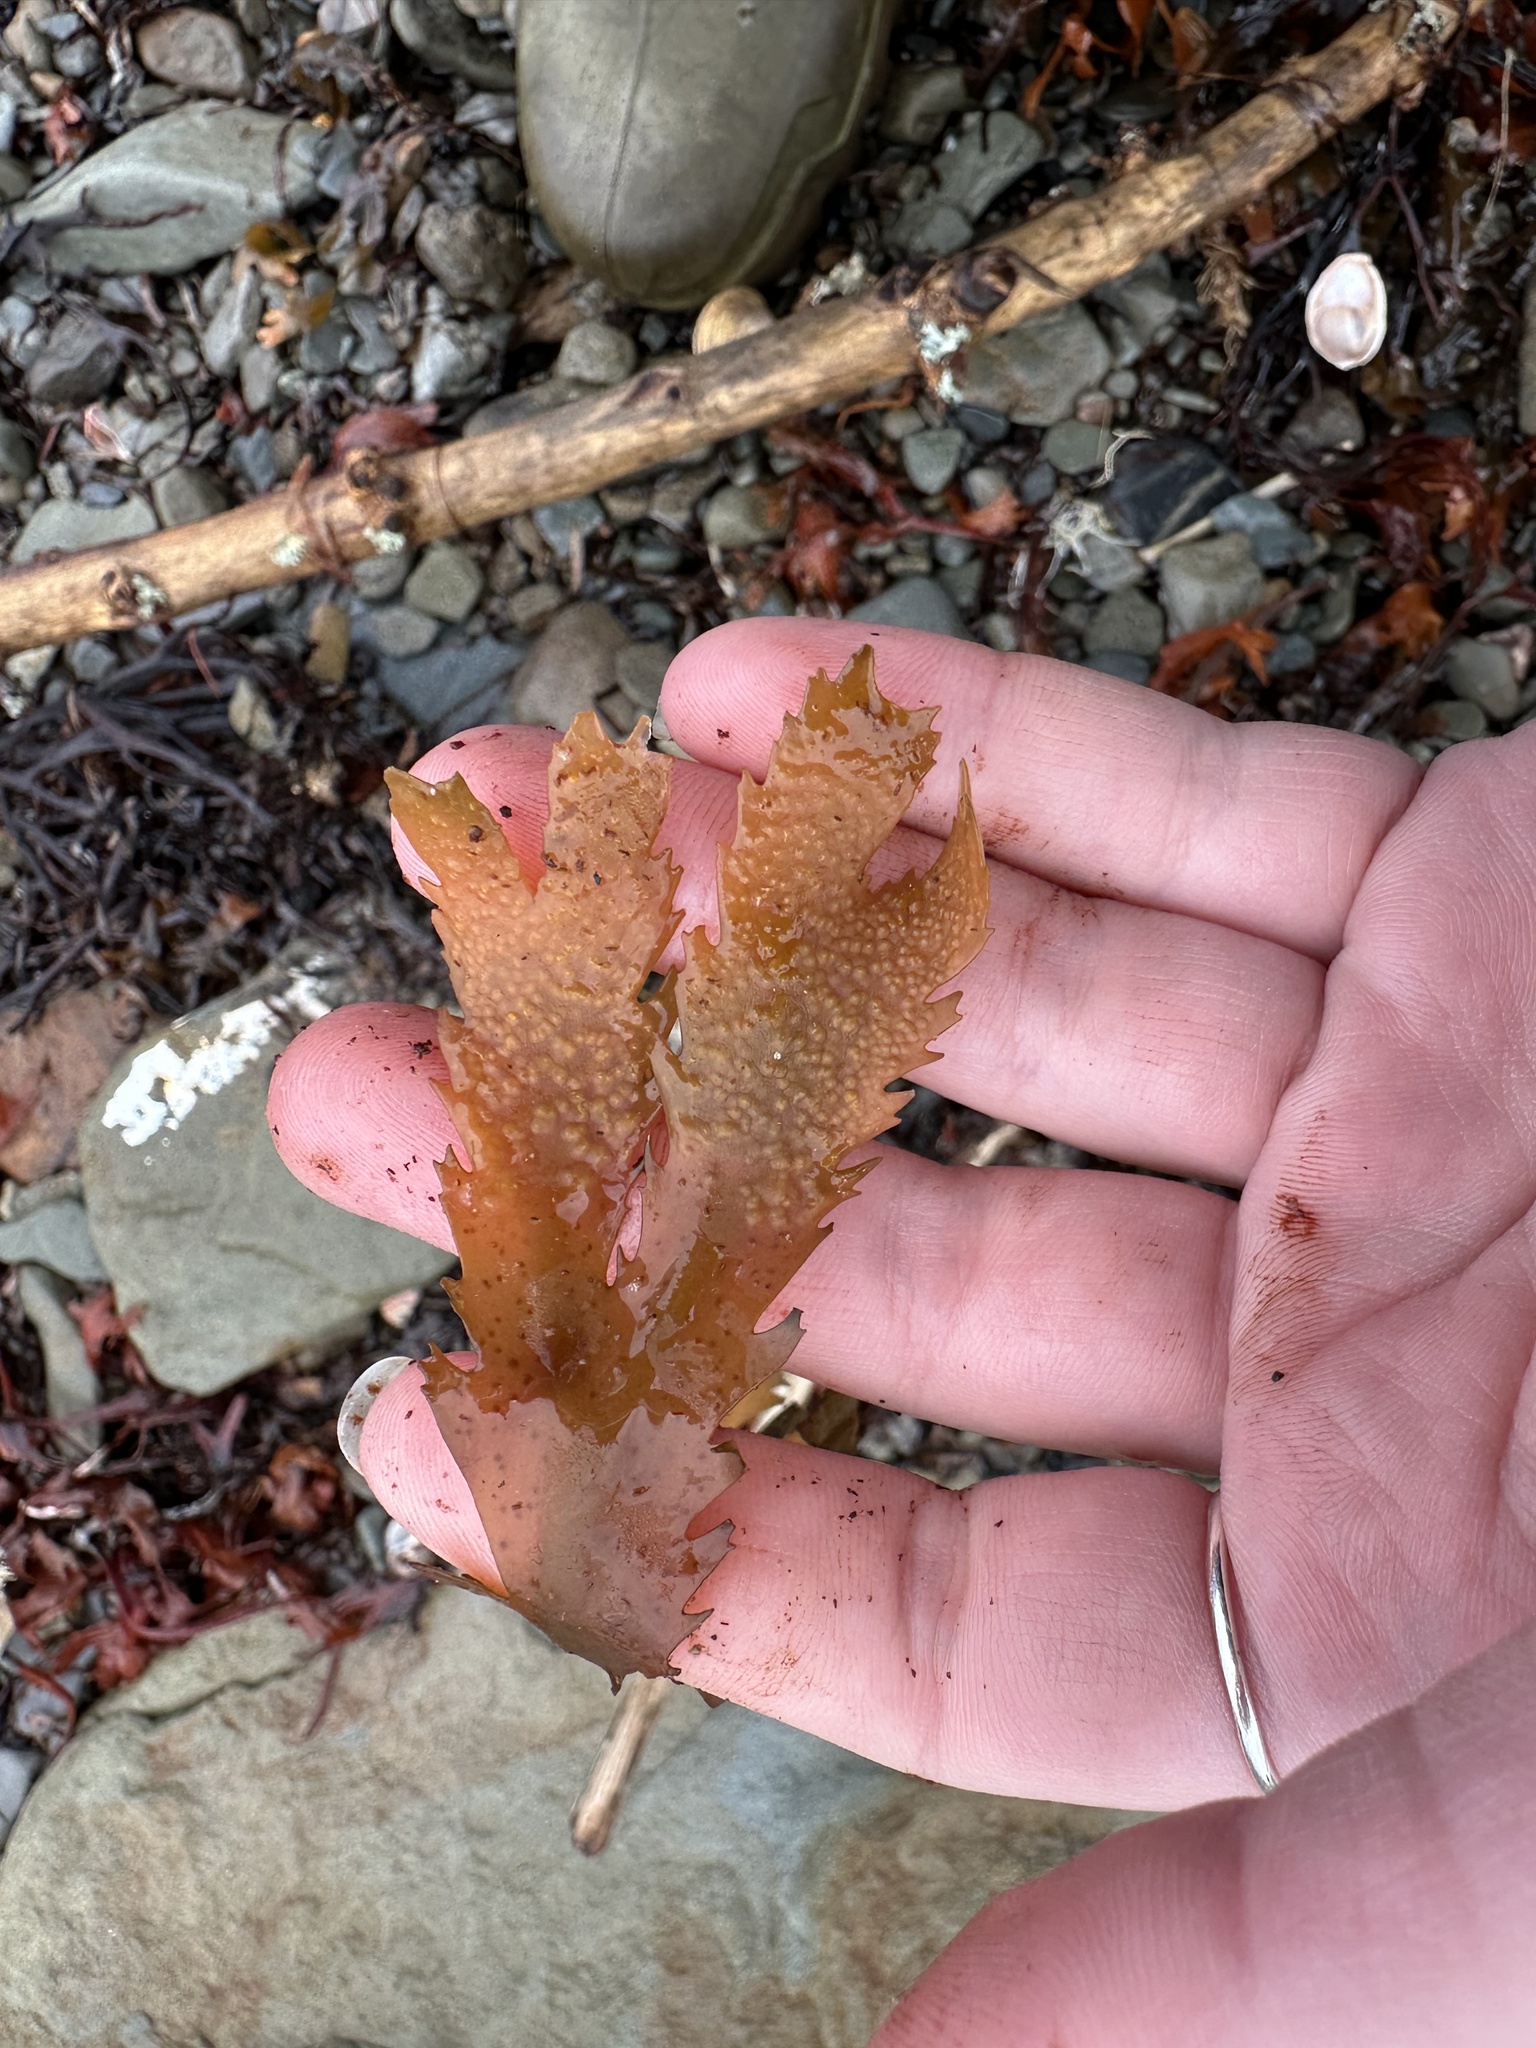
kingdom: Chromista
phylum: Ochrophyta
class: Phaeophyceae
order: Fucales
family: Fucaceae
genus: Fucus
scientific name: Fucus serratus
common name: Toothed wrack
